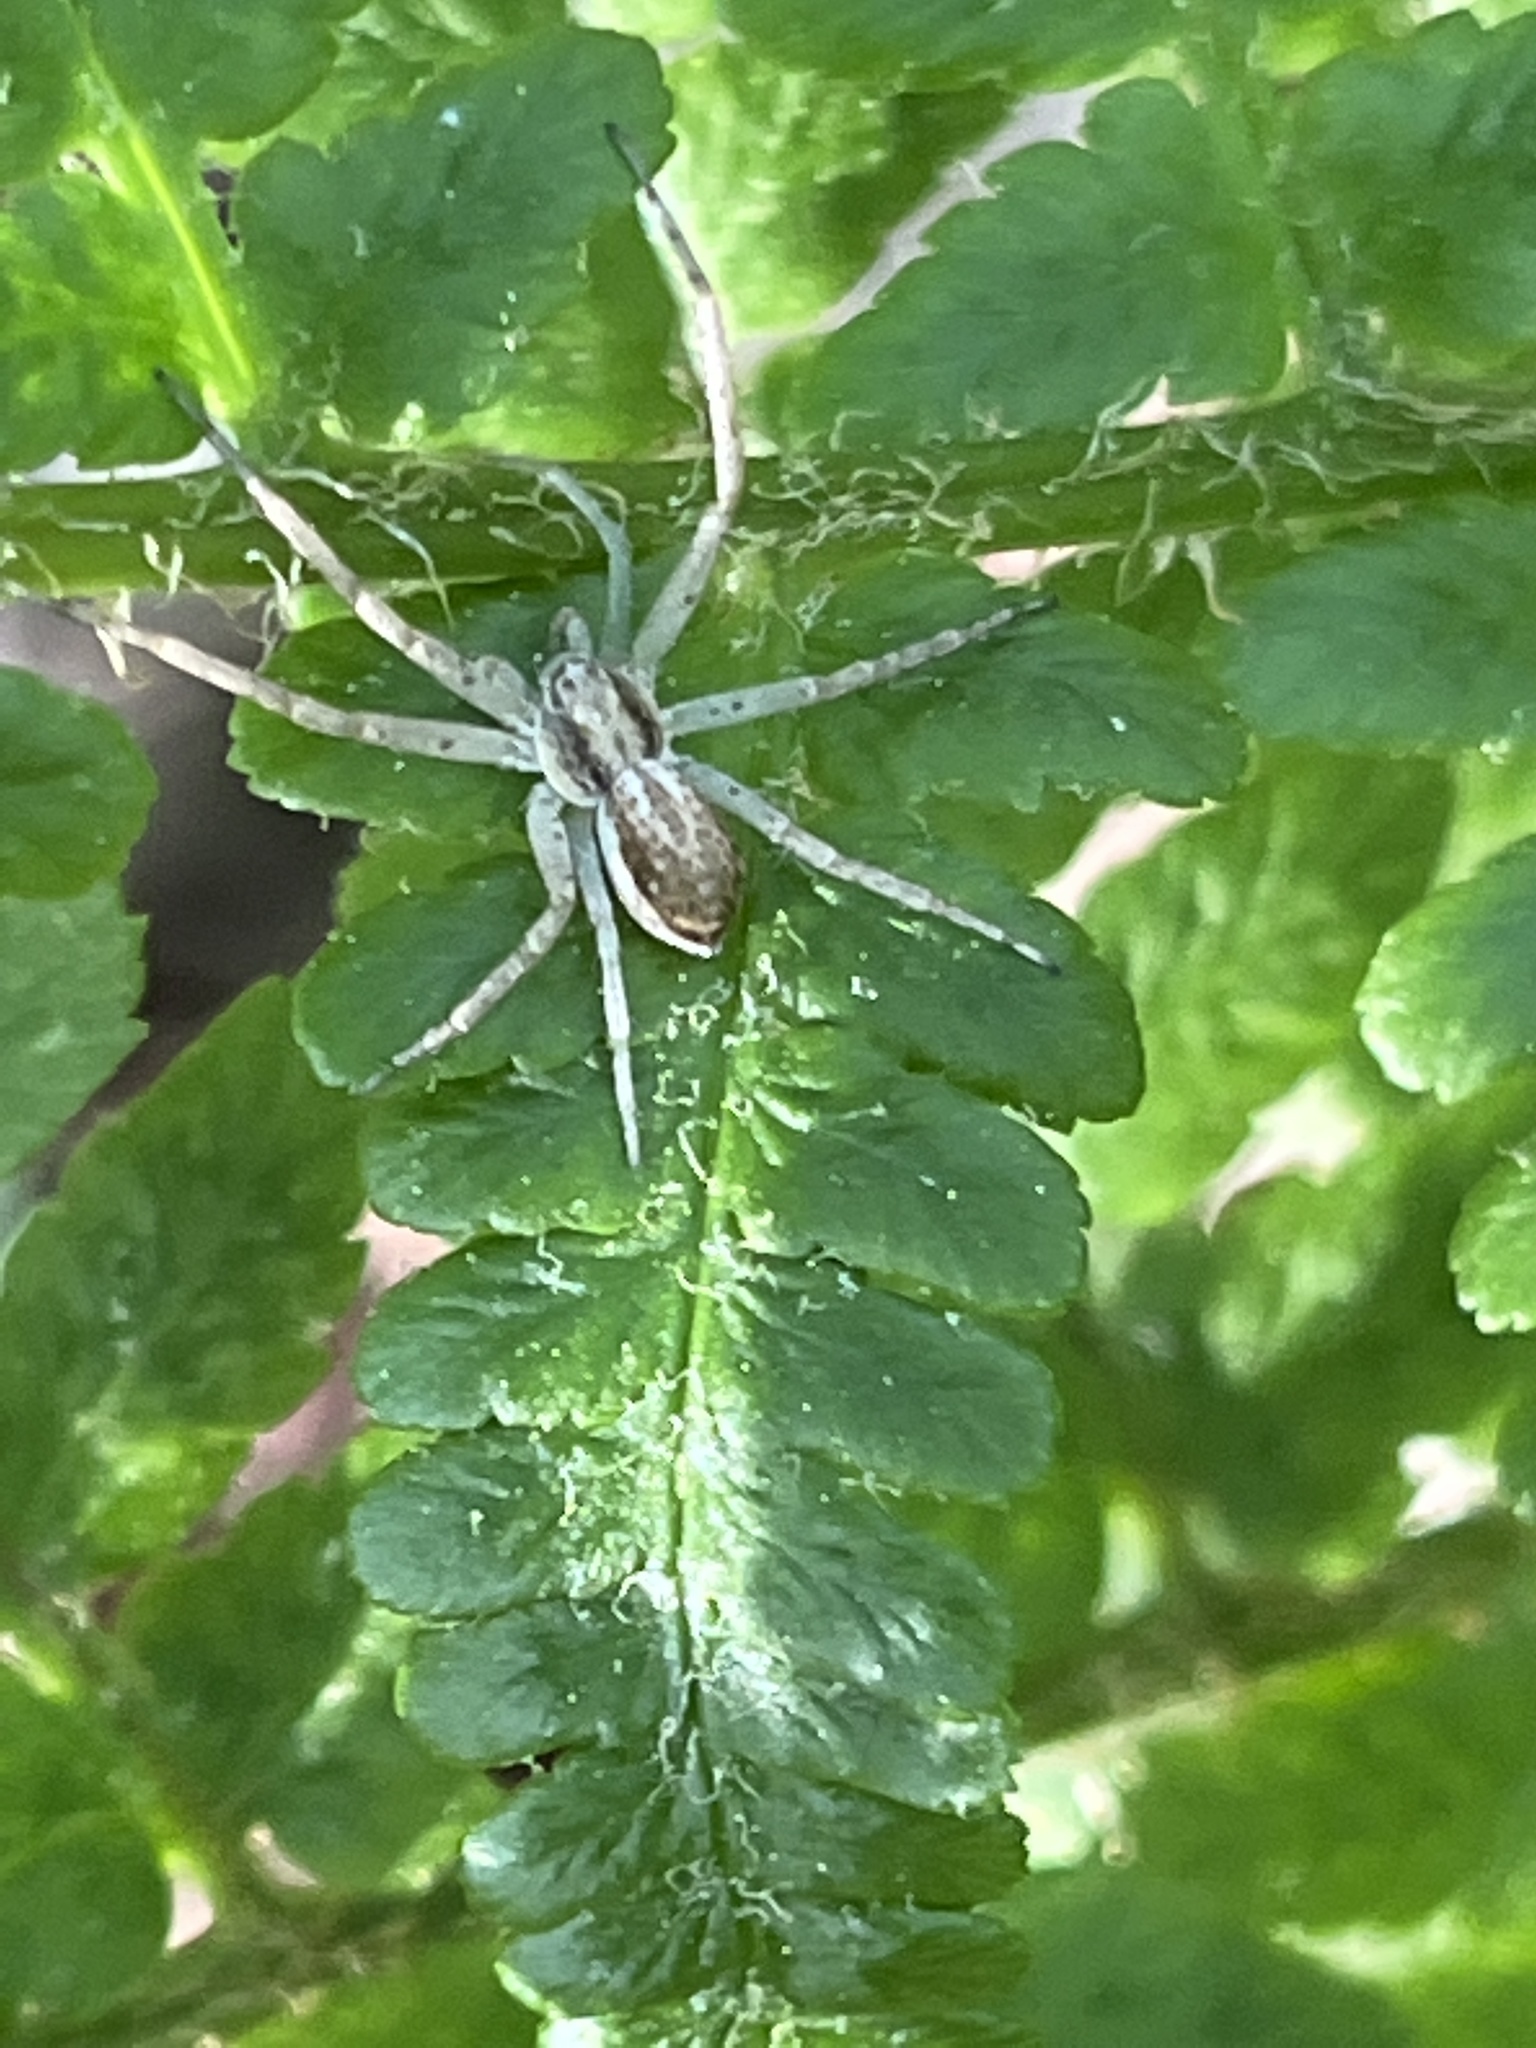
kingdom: Animalia
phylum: Arthropoda
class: Arachnida
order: Araneae
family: Philodromidae
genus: Philodromus
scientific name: Philodromus dispar
